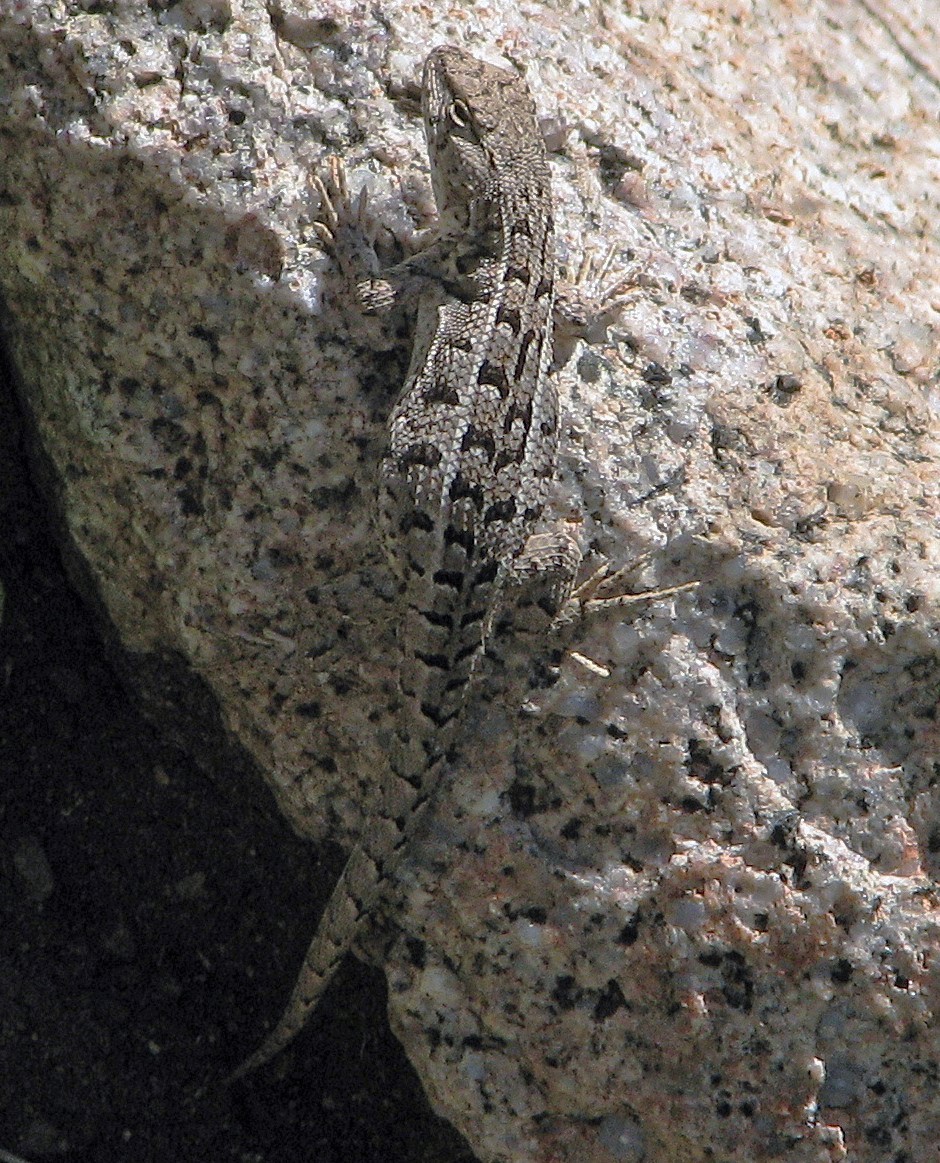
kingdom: Animalia
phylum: Chordata
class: Squamata
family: Liolaemidae
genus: Liolaemus
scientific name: Liolaemus wiegmannii
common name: Wiegmann's tree iguana
